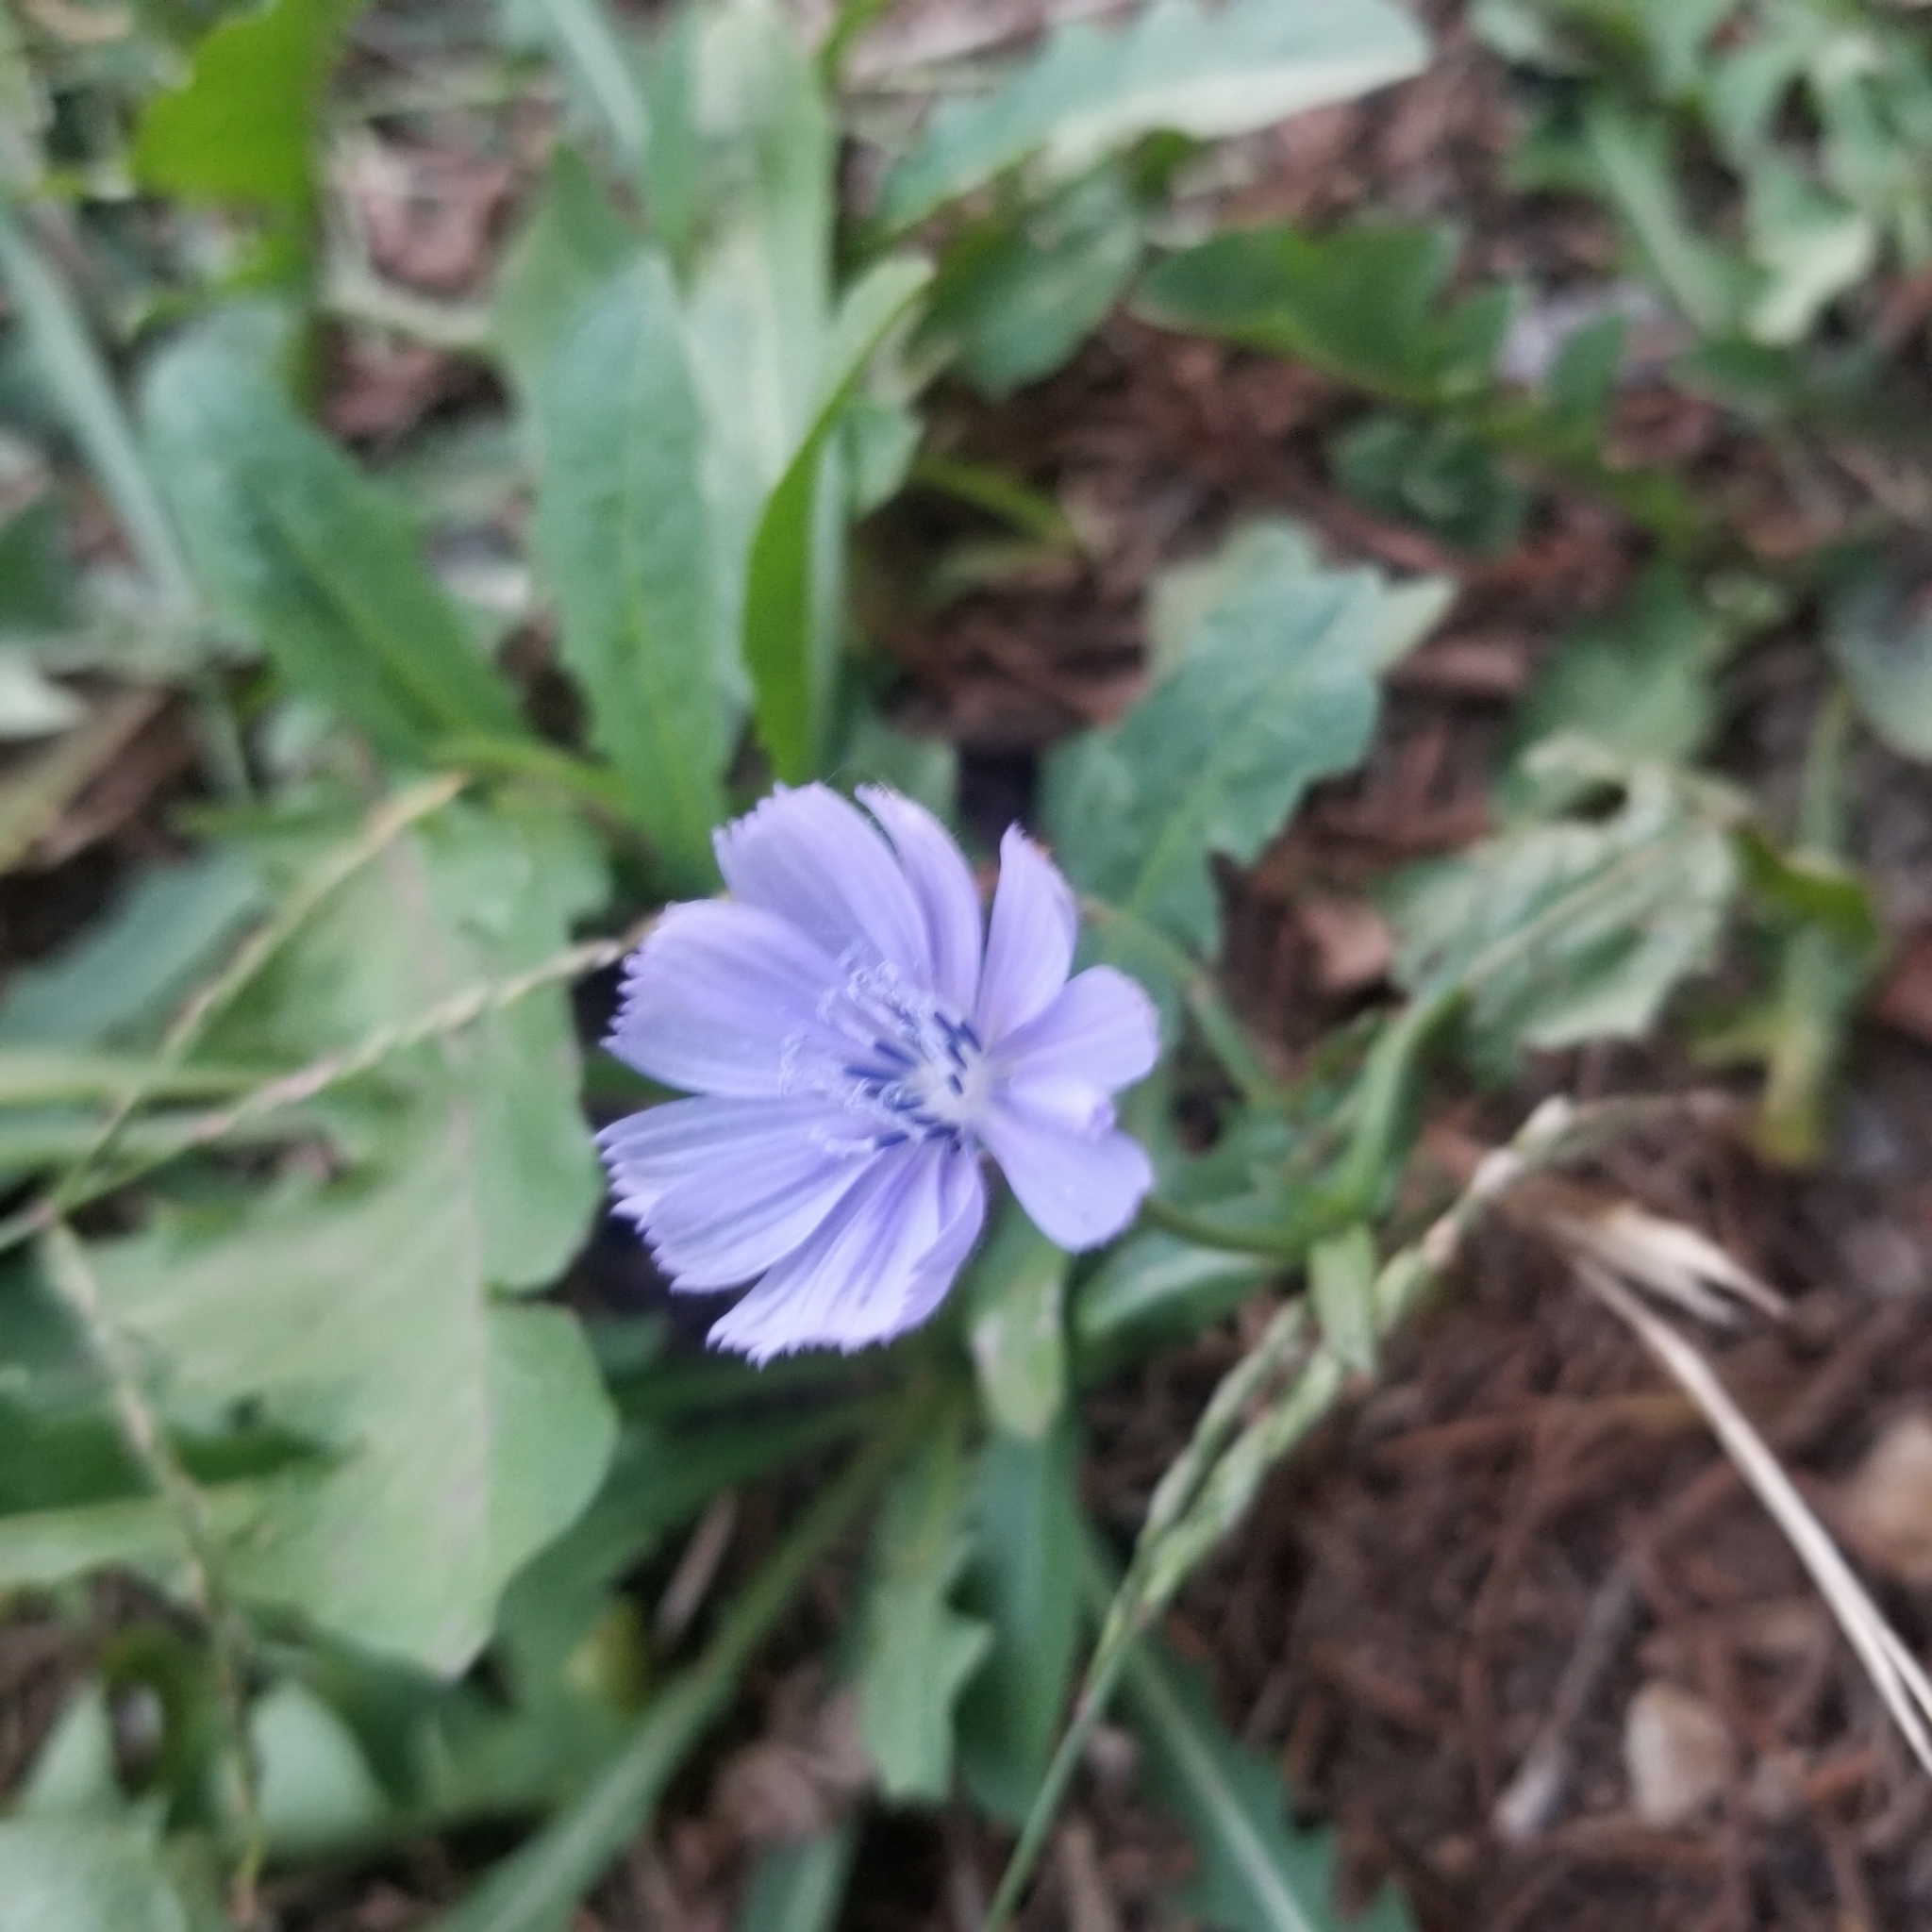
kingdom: Plantae
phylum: Tracheophyta
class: Magnoliopsida
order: Asterales
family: Asteraceae
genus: Cichorium
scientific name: Cichorium intybus
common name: Chicory
